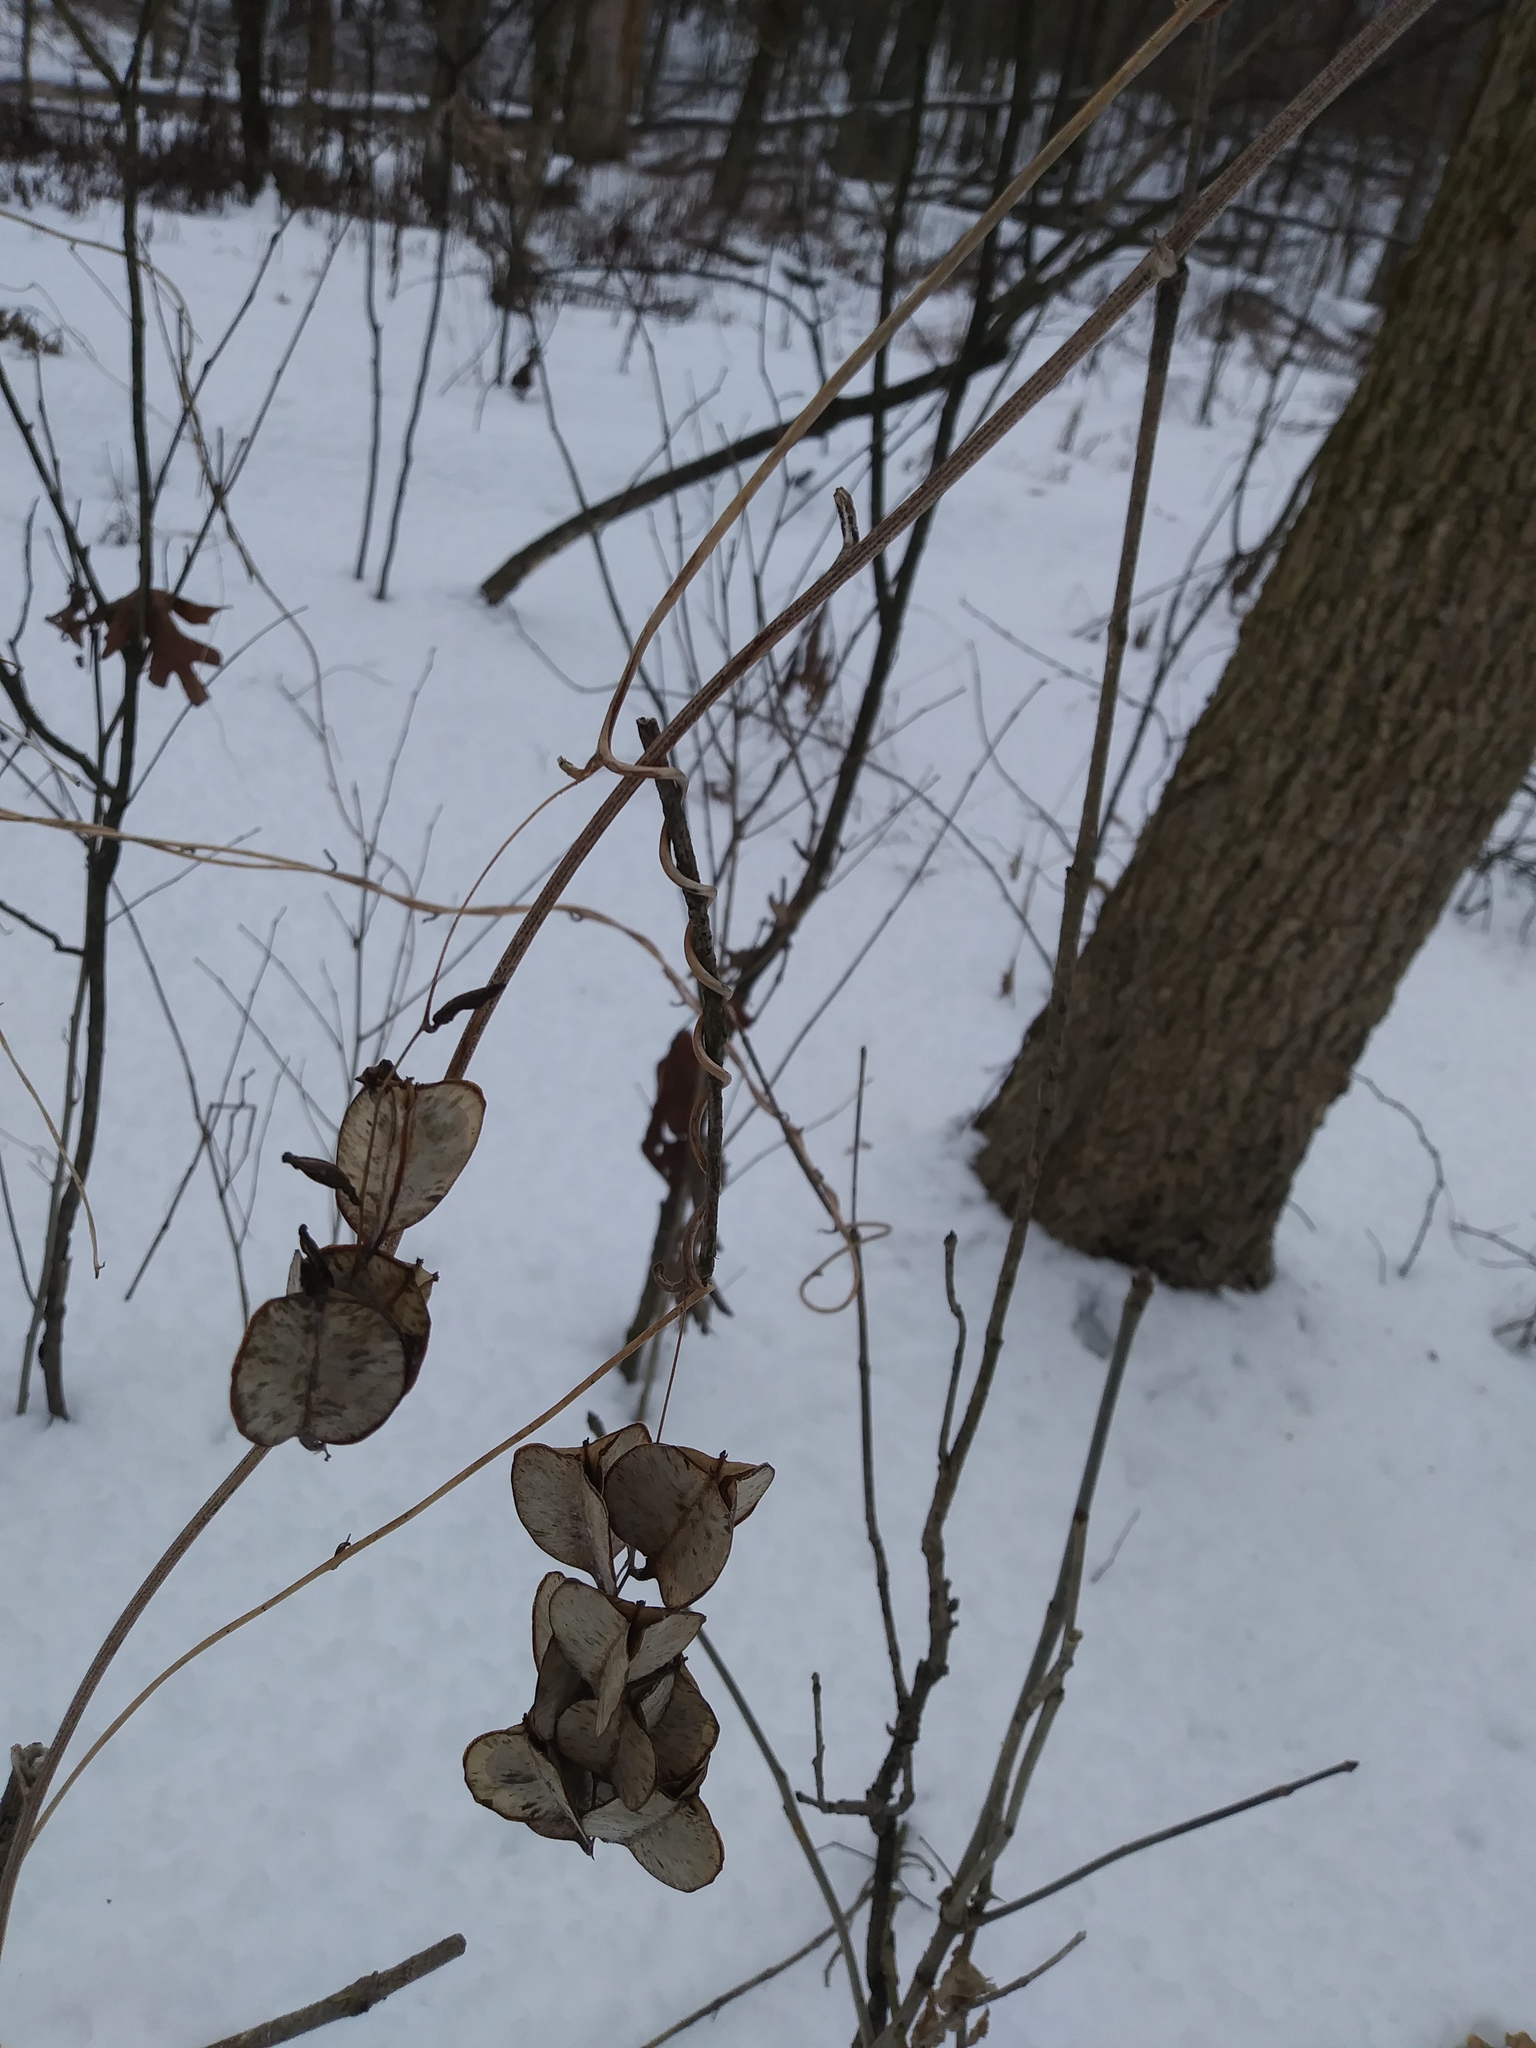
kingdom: Plantae
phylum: Tracheophyta
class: Liliopsida
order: Dioscoreales
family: Dioscoreaceae
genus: Dioscorea
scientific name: Dioscorea villosa
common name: Wild yam
